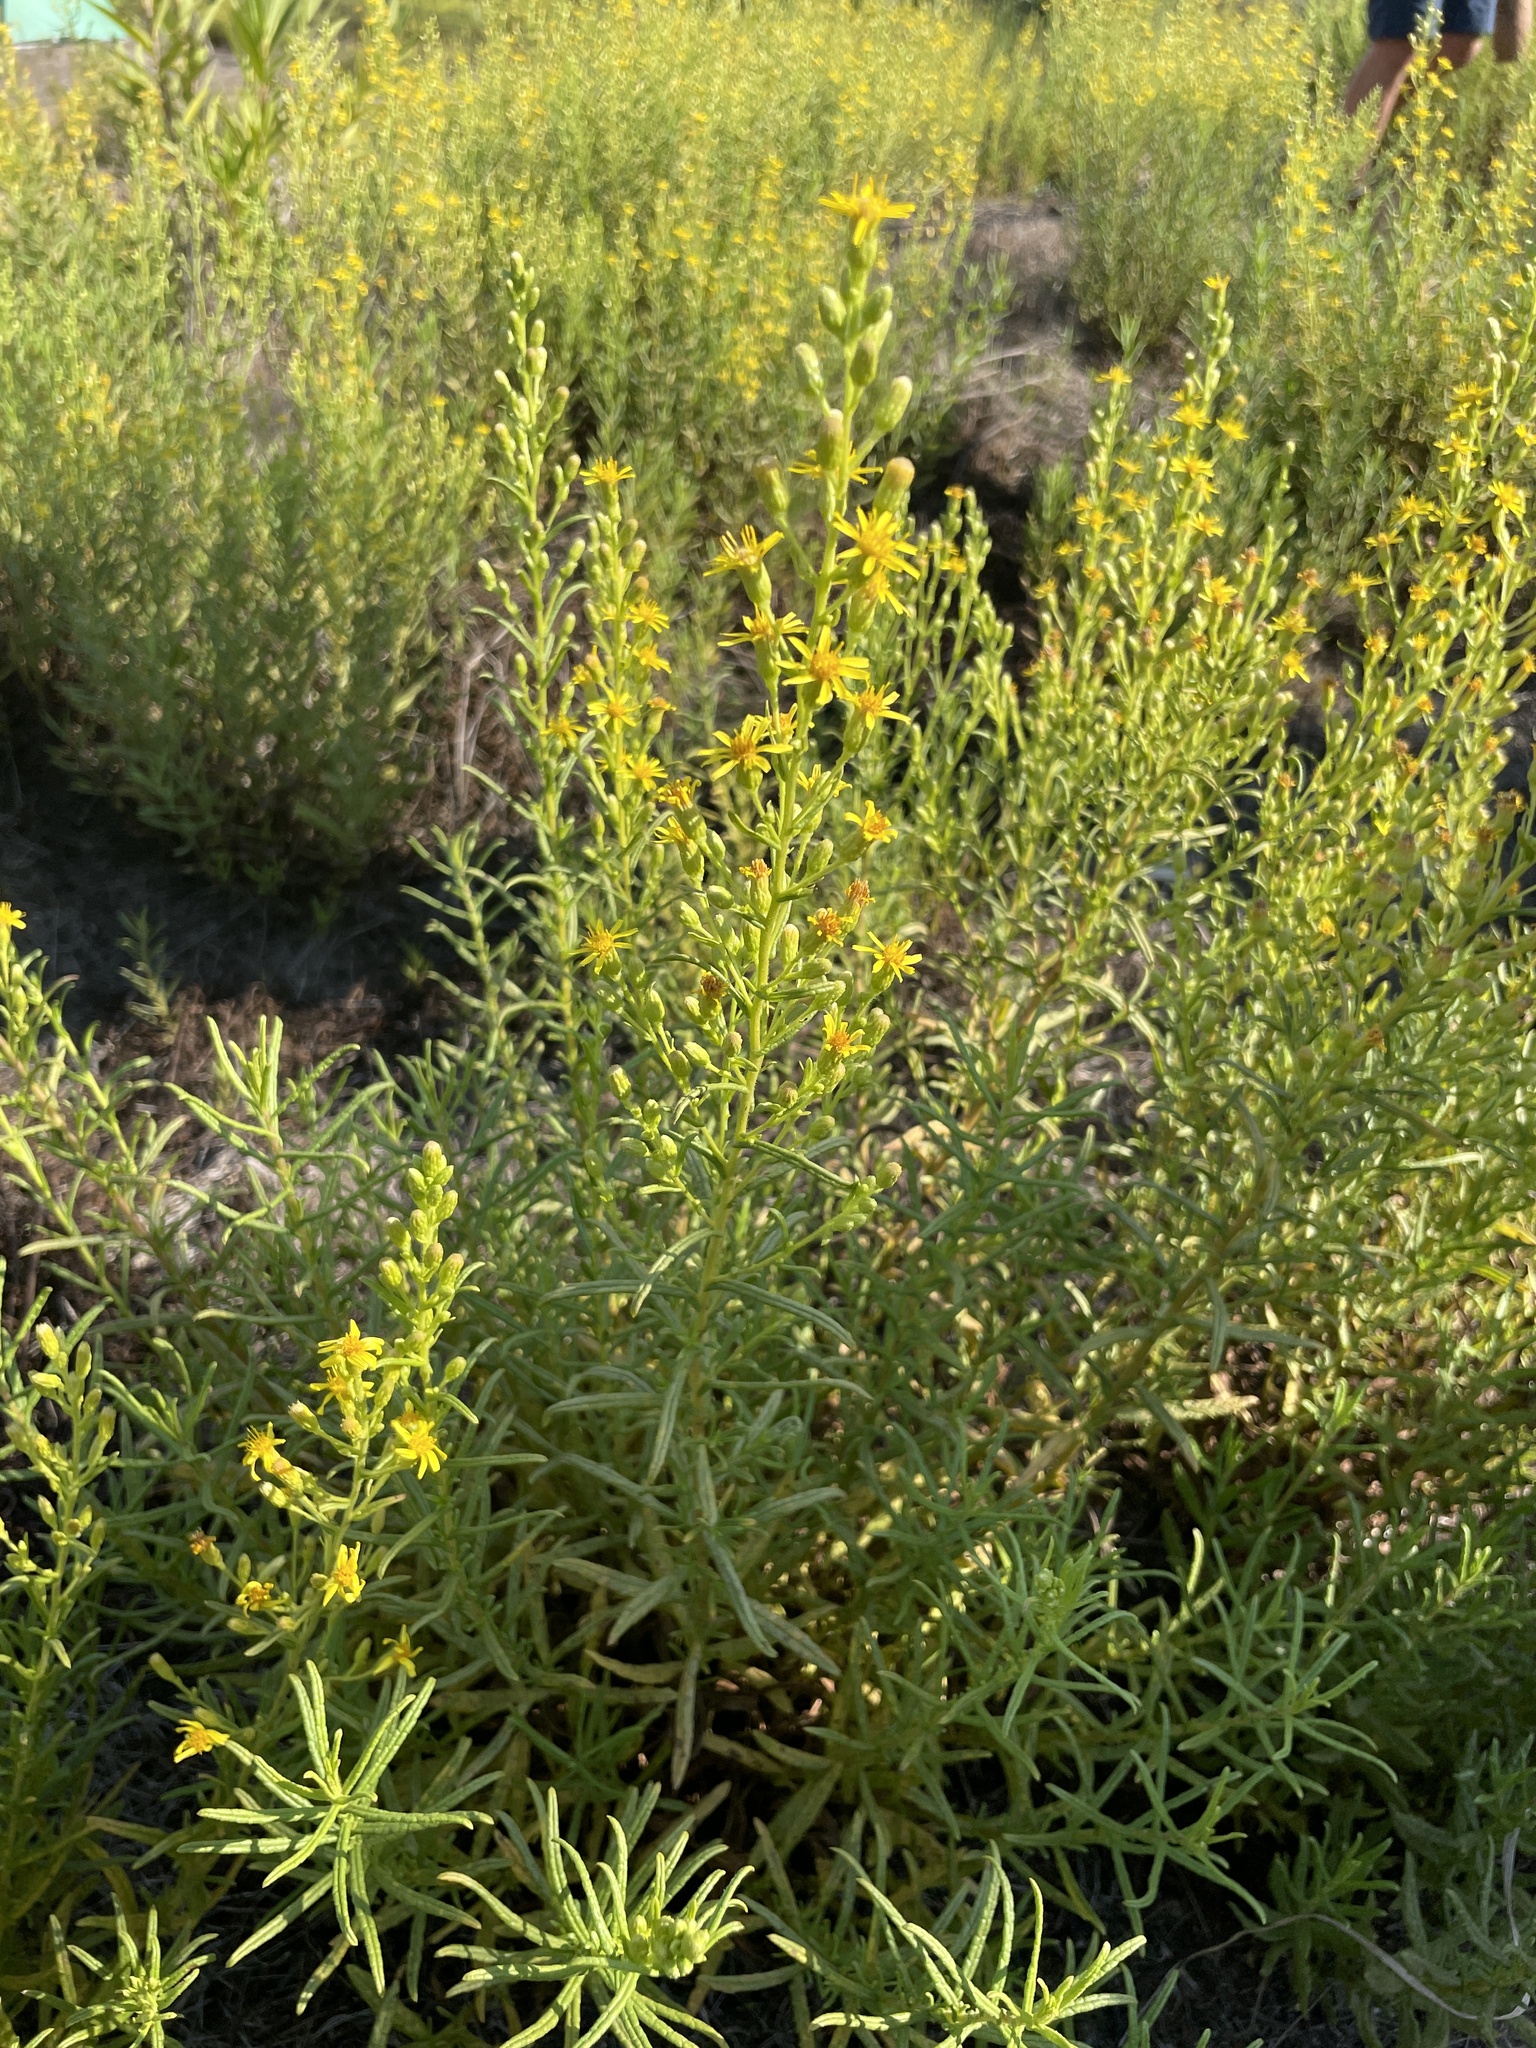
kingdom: Plantae
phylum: Tracheophyta
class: Magnoliopsida
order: Asterales
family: Asteraceae
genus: Dittrichia
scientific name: Dittrichia viscosa
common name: Woody fleabane
